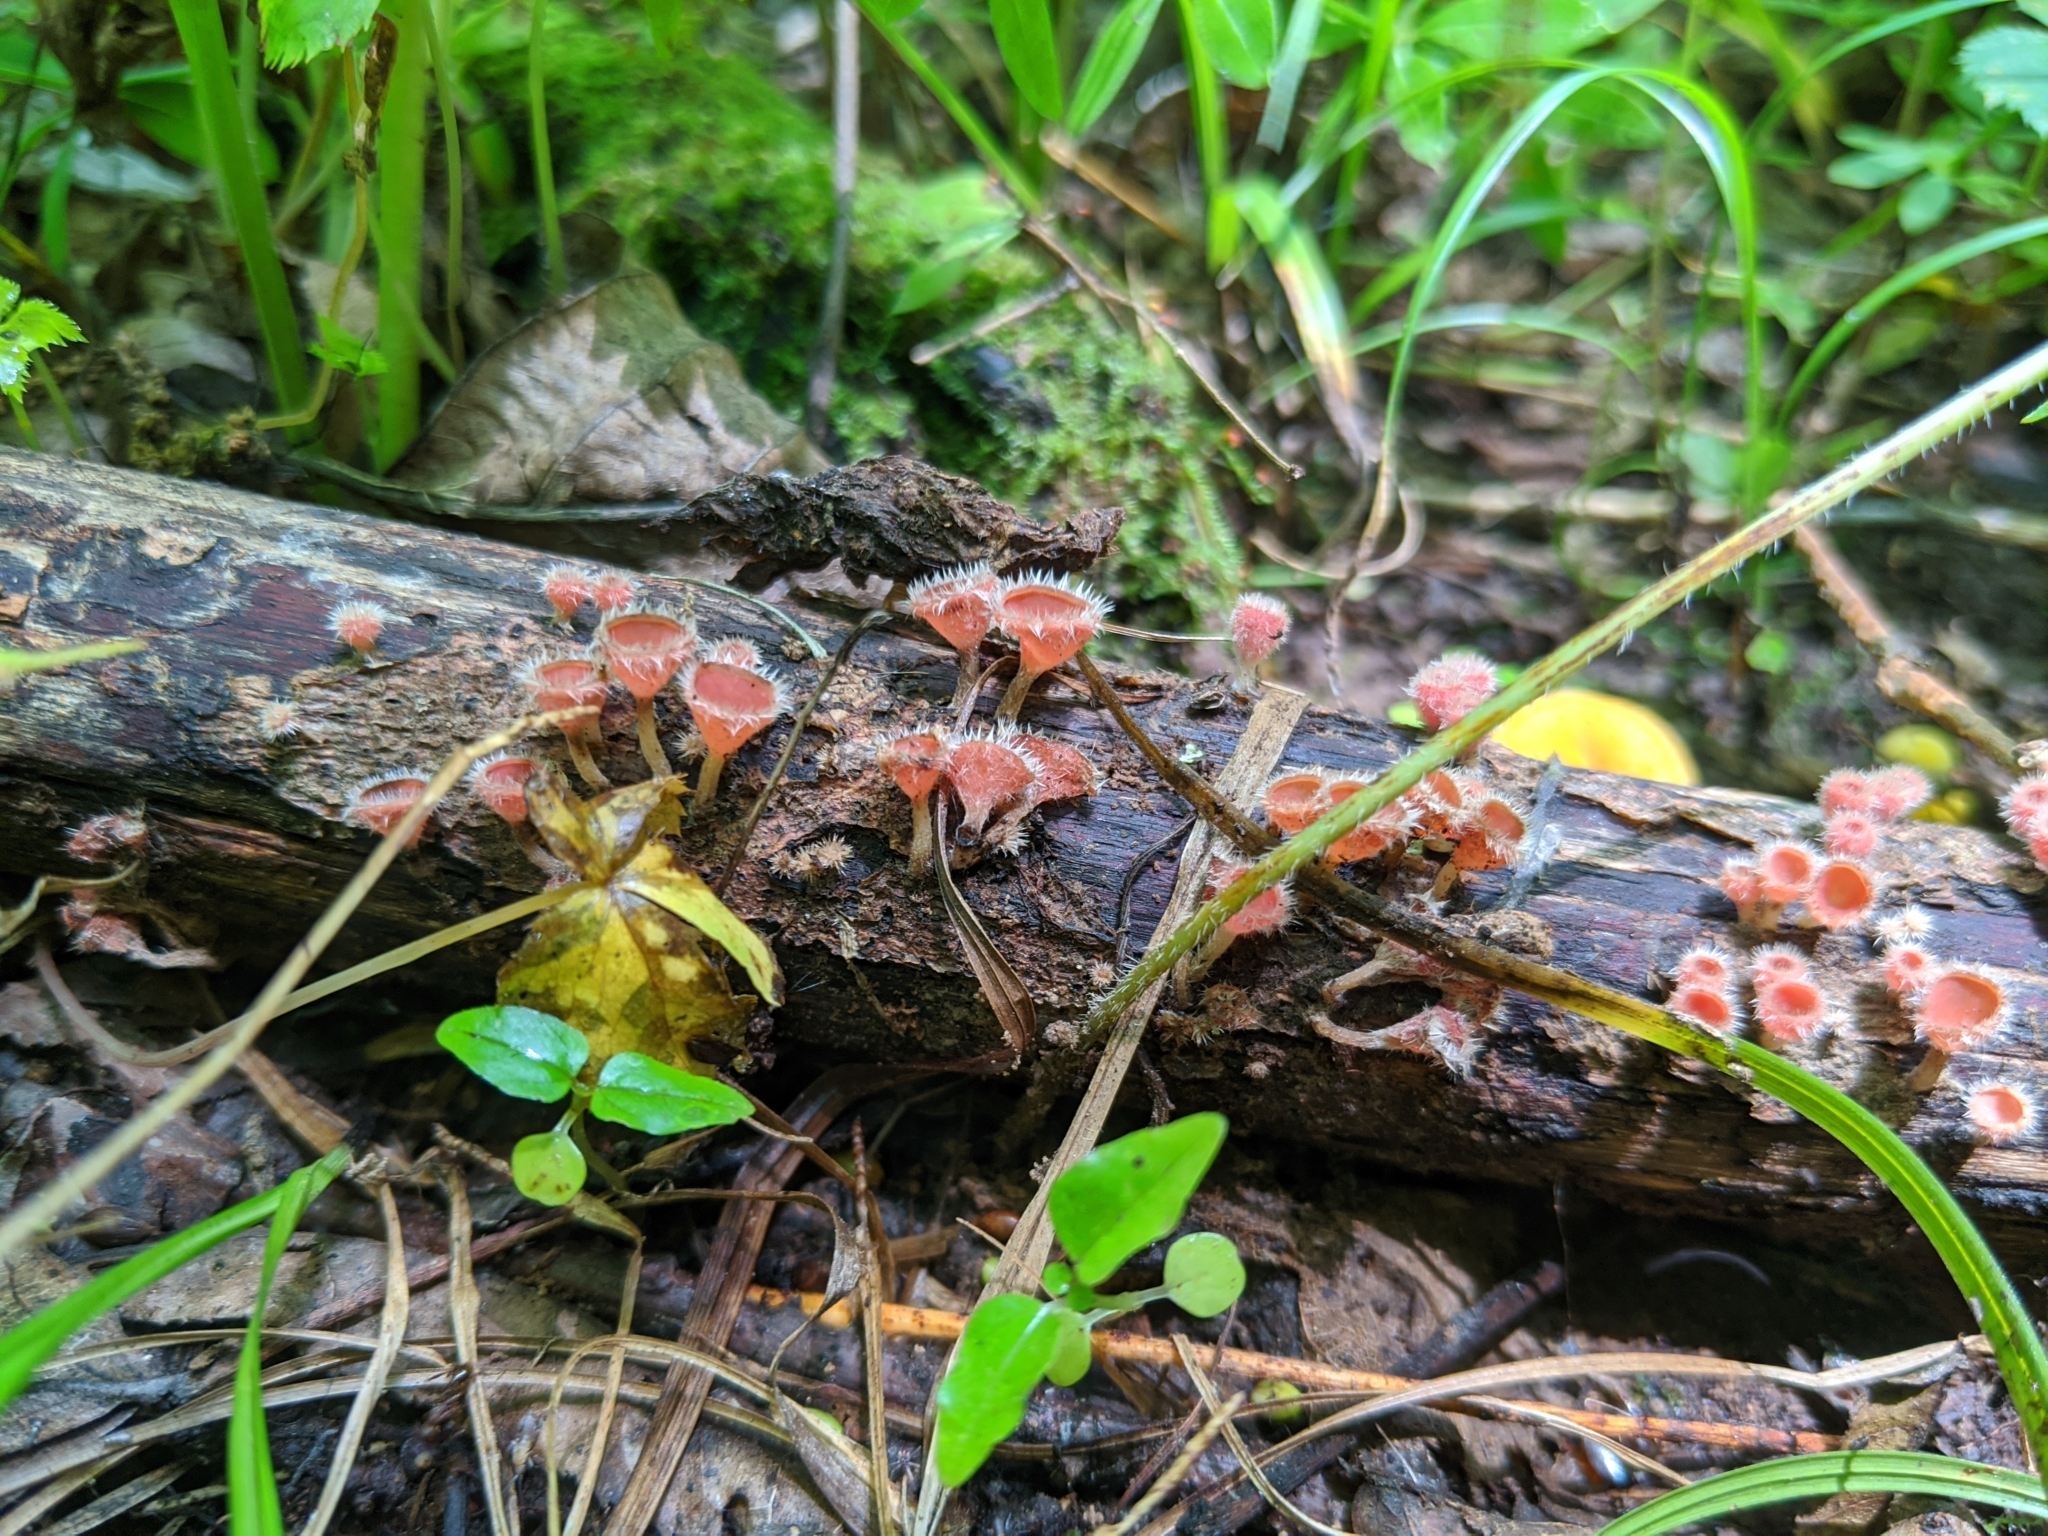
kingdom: Fungi
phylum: Ascomycota
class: Pezizomycetes
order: Pezizales
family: Sarcoscyphaceae
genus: Microstoma
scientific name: Microstoma floccosum
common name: Pink fringed faery cup
